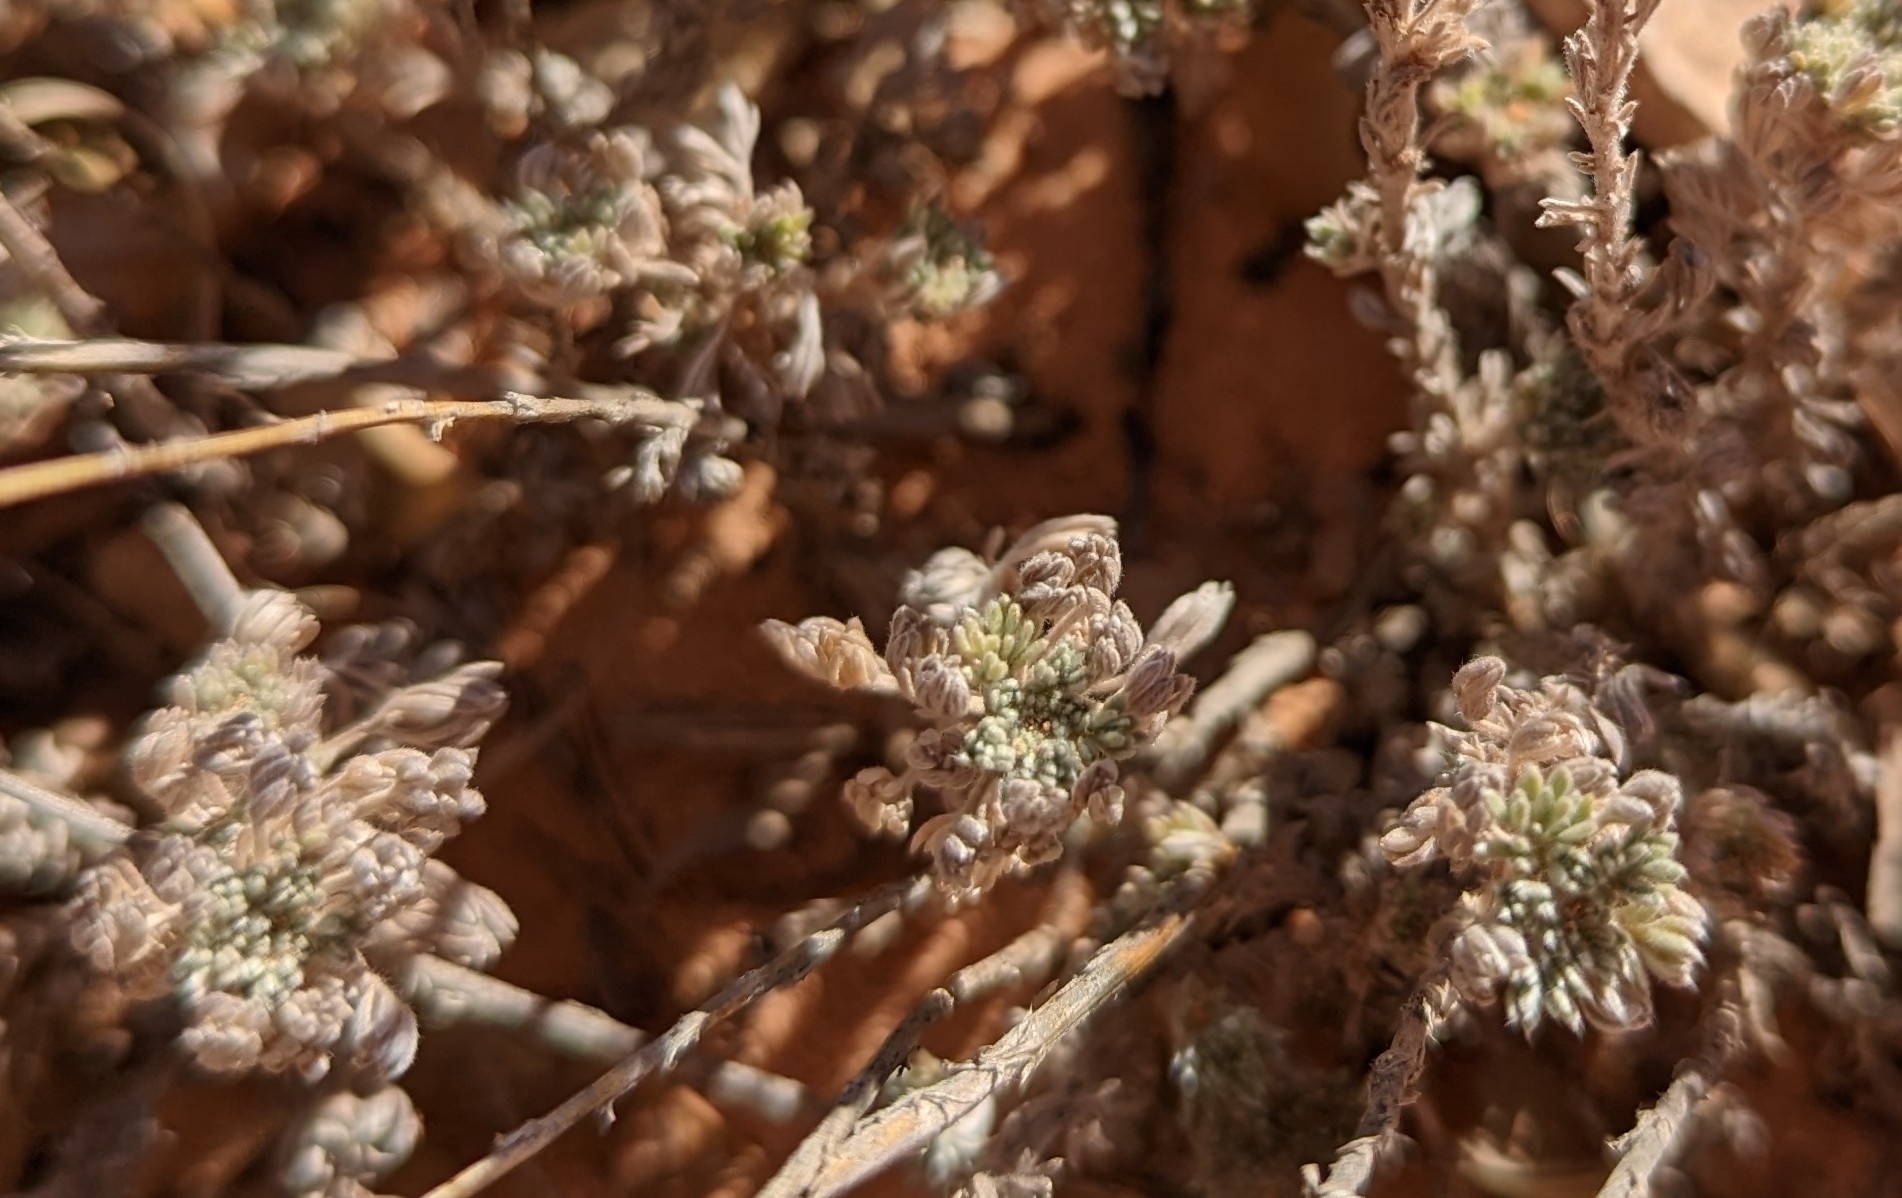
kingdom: Plantae
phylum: Tracheophyta
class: Magnoliopsida
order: Asterales
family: Asteraceae
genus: Artemisia
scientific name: Artemisia frigida
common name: Prairie sagewort
